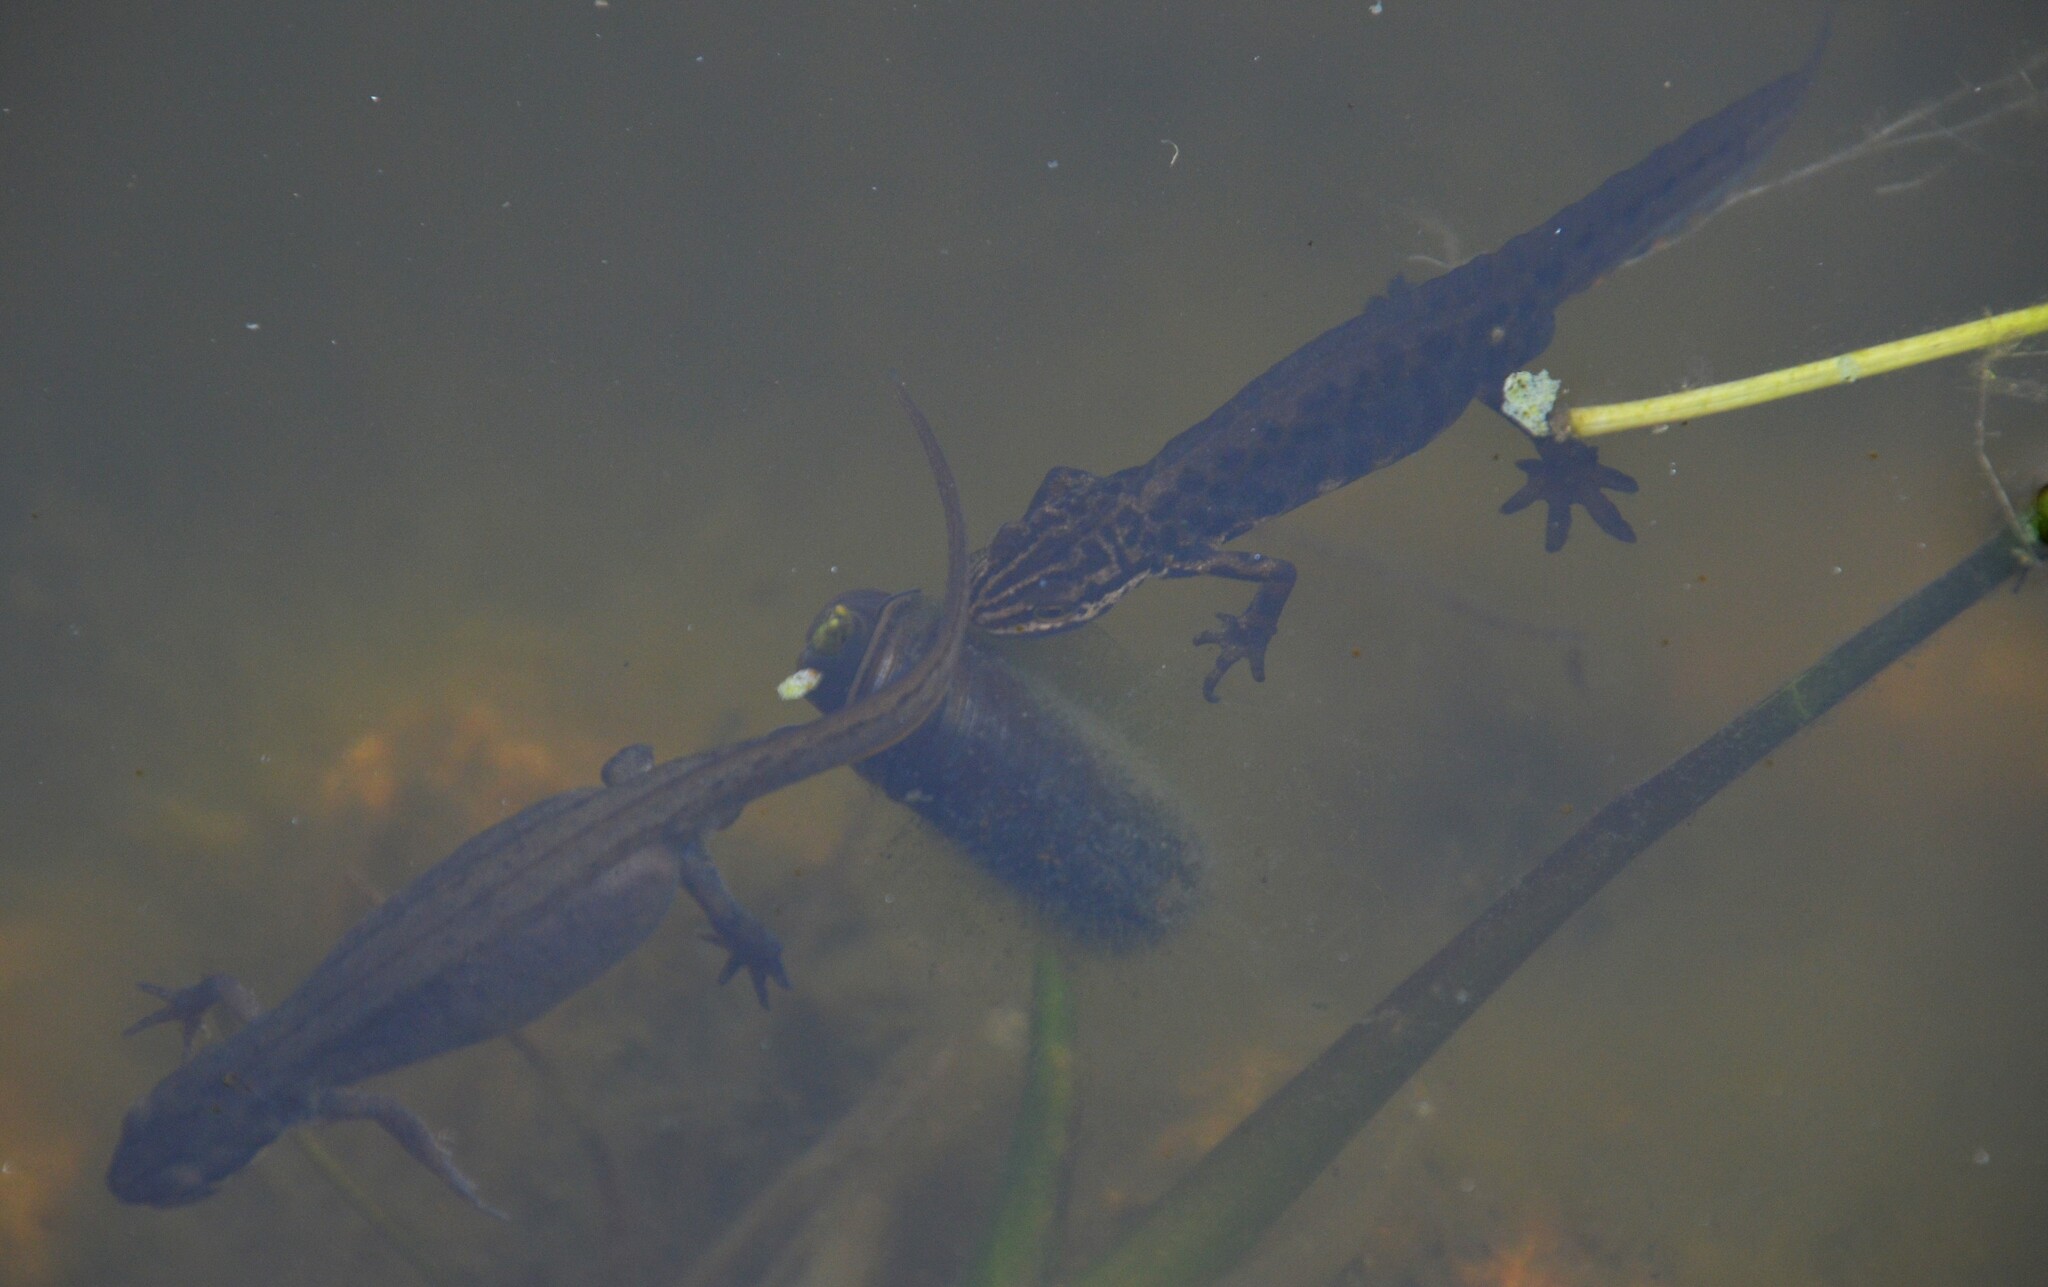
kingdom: Animalia
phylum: Chordata
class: Amphibia
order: Caudata
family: Salamandridae
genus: Lissotriton
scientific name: Lissotriton vulgaris
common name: Smooth newt
